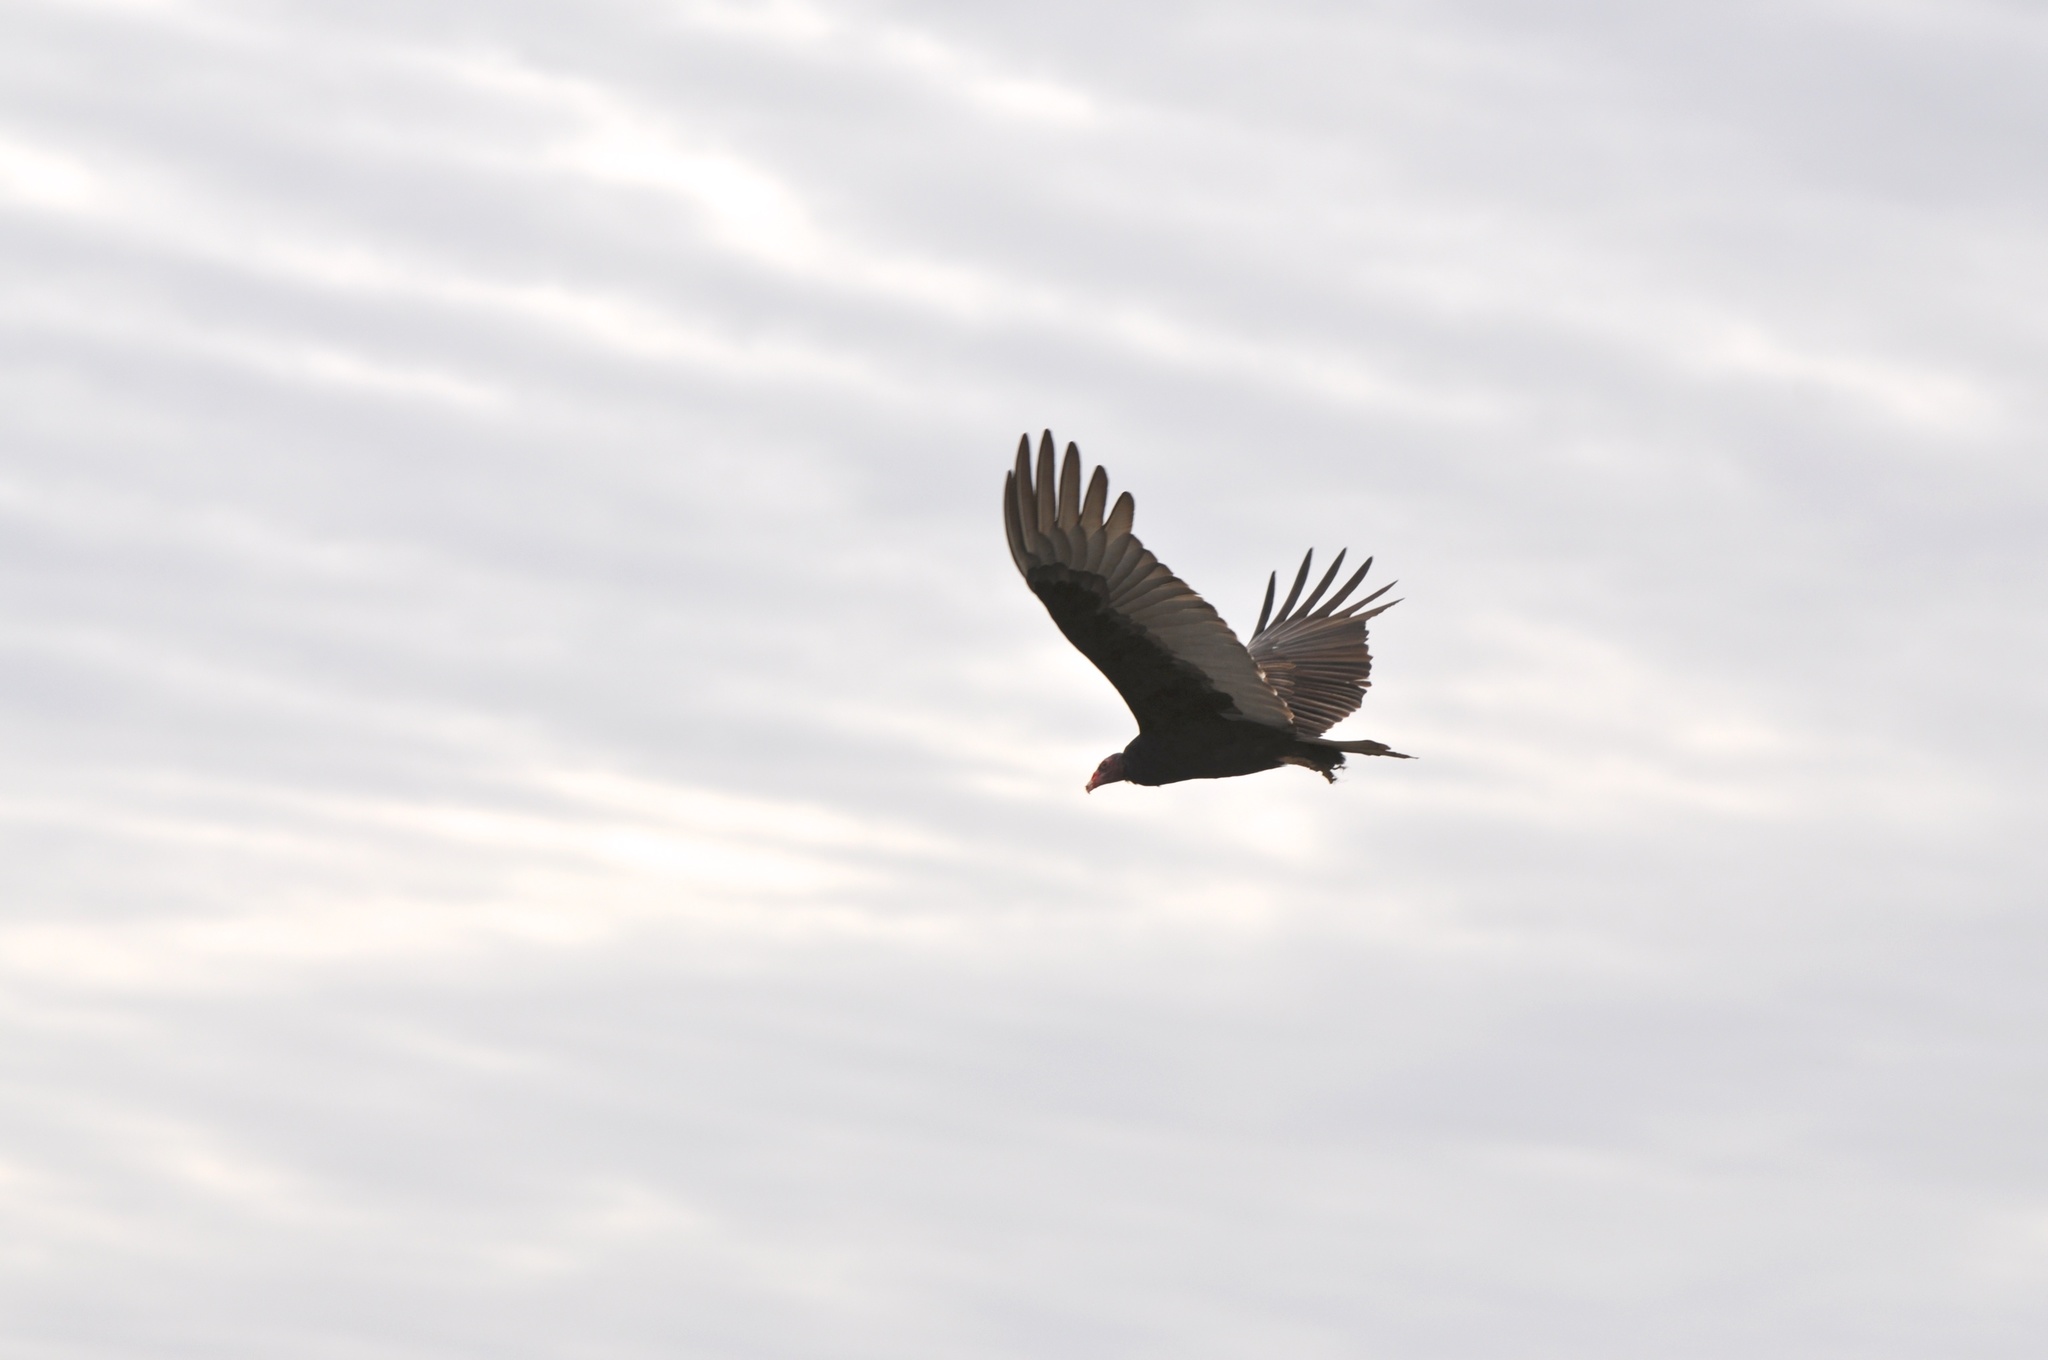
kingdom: Animalia
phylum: Chordata
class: Aves
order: Accipitriformes
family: Cathartidae
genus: Cathartes
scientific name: Cathartes aura
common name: Turkey vulture
